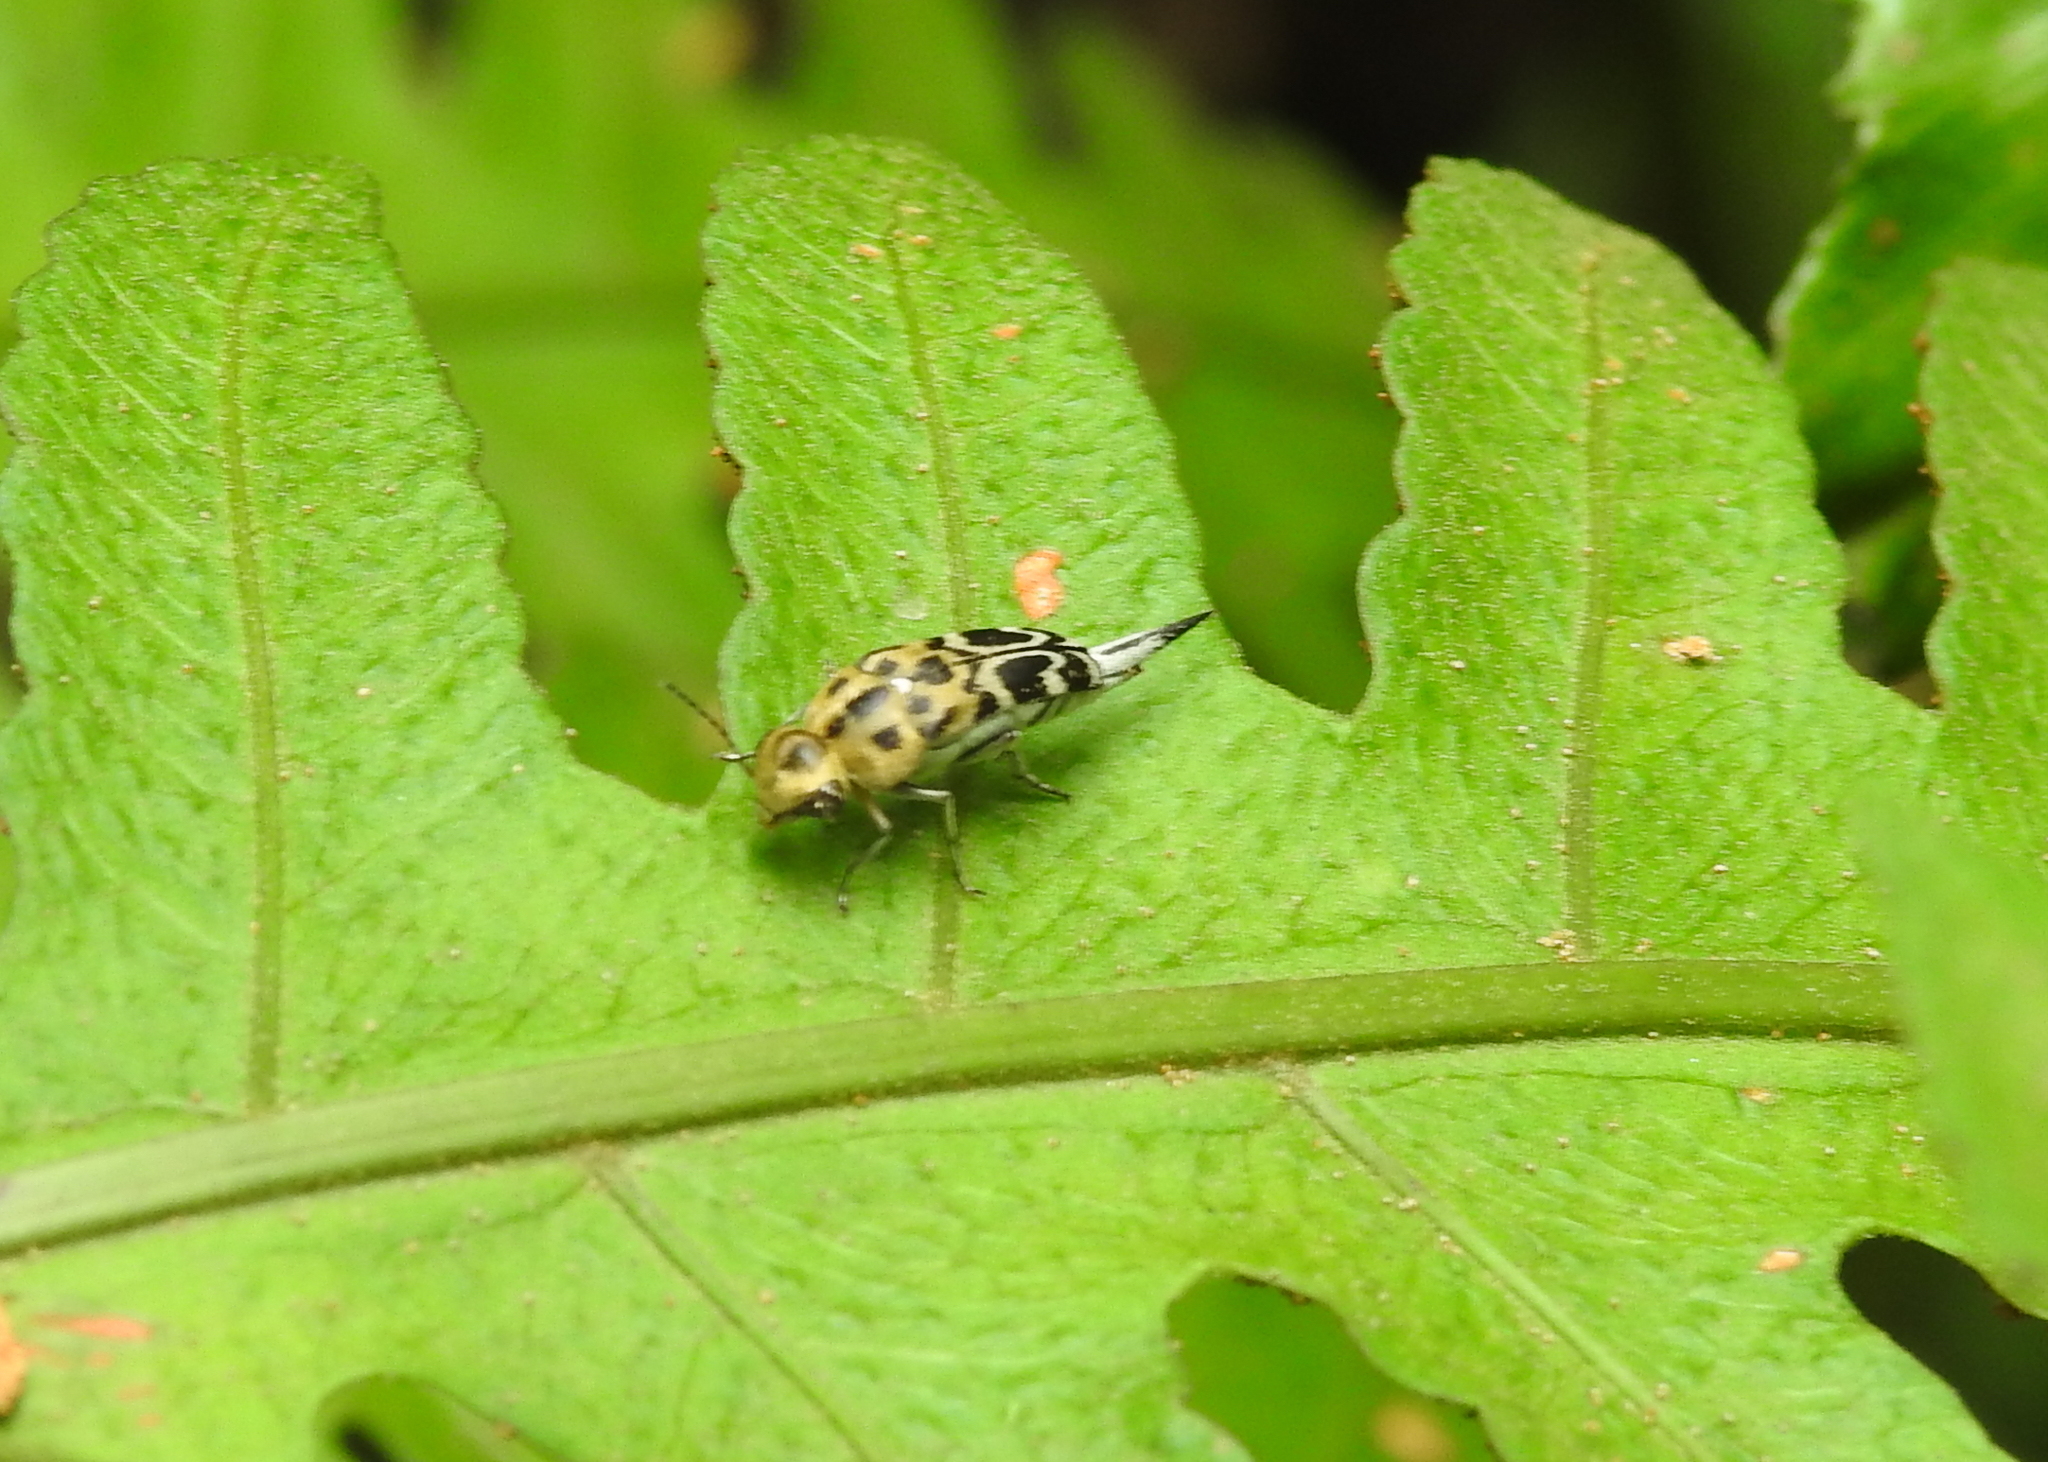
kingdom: Animalia
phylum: Arthropoda
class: Insecta
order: Coleoptera
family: Mordellidae
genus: Glipa
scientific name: Glipa
